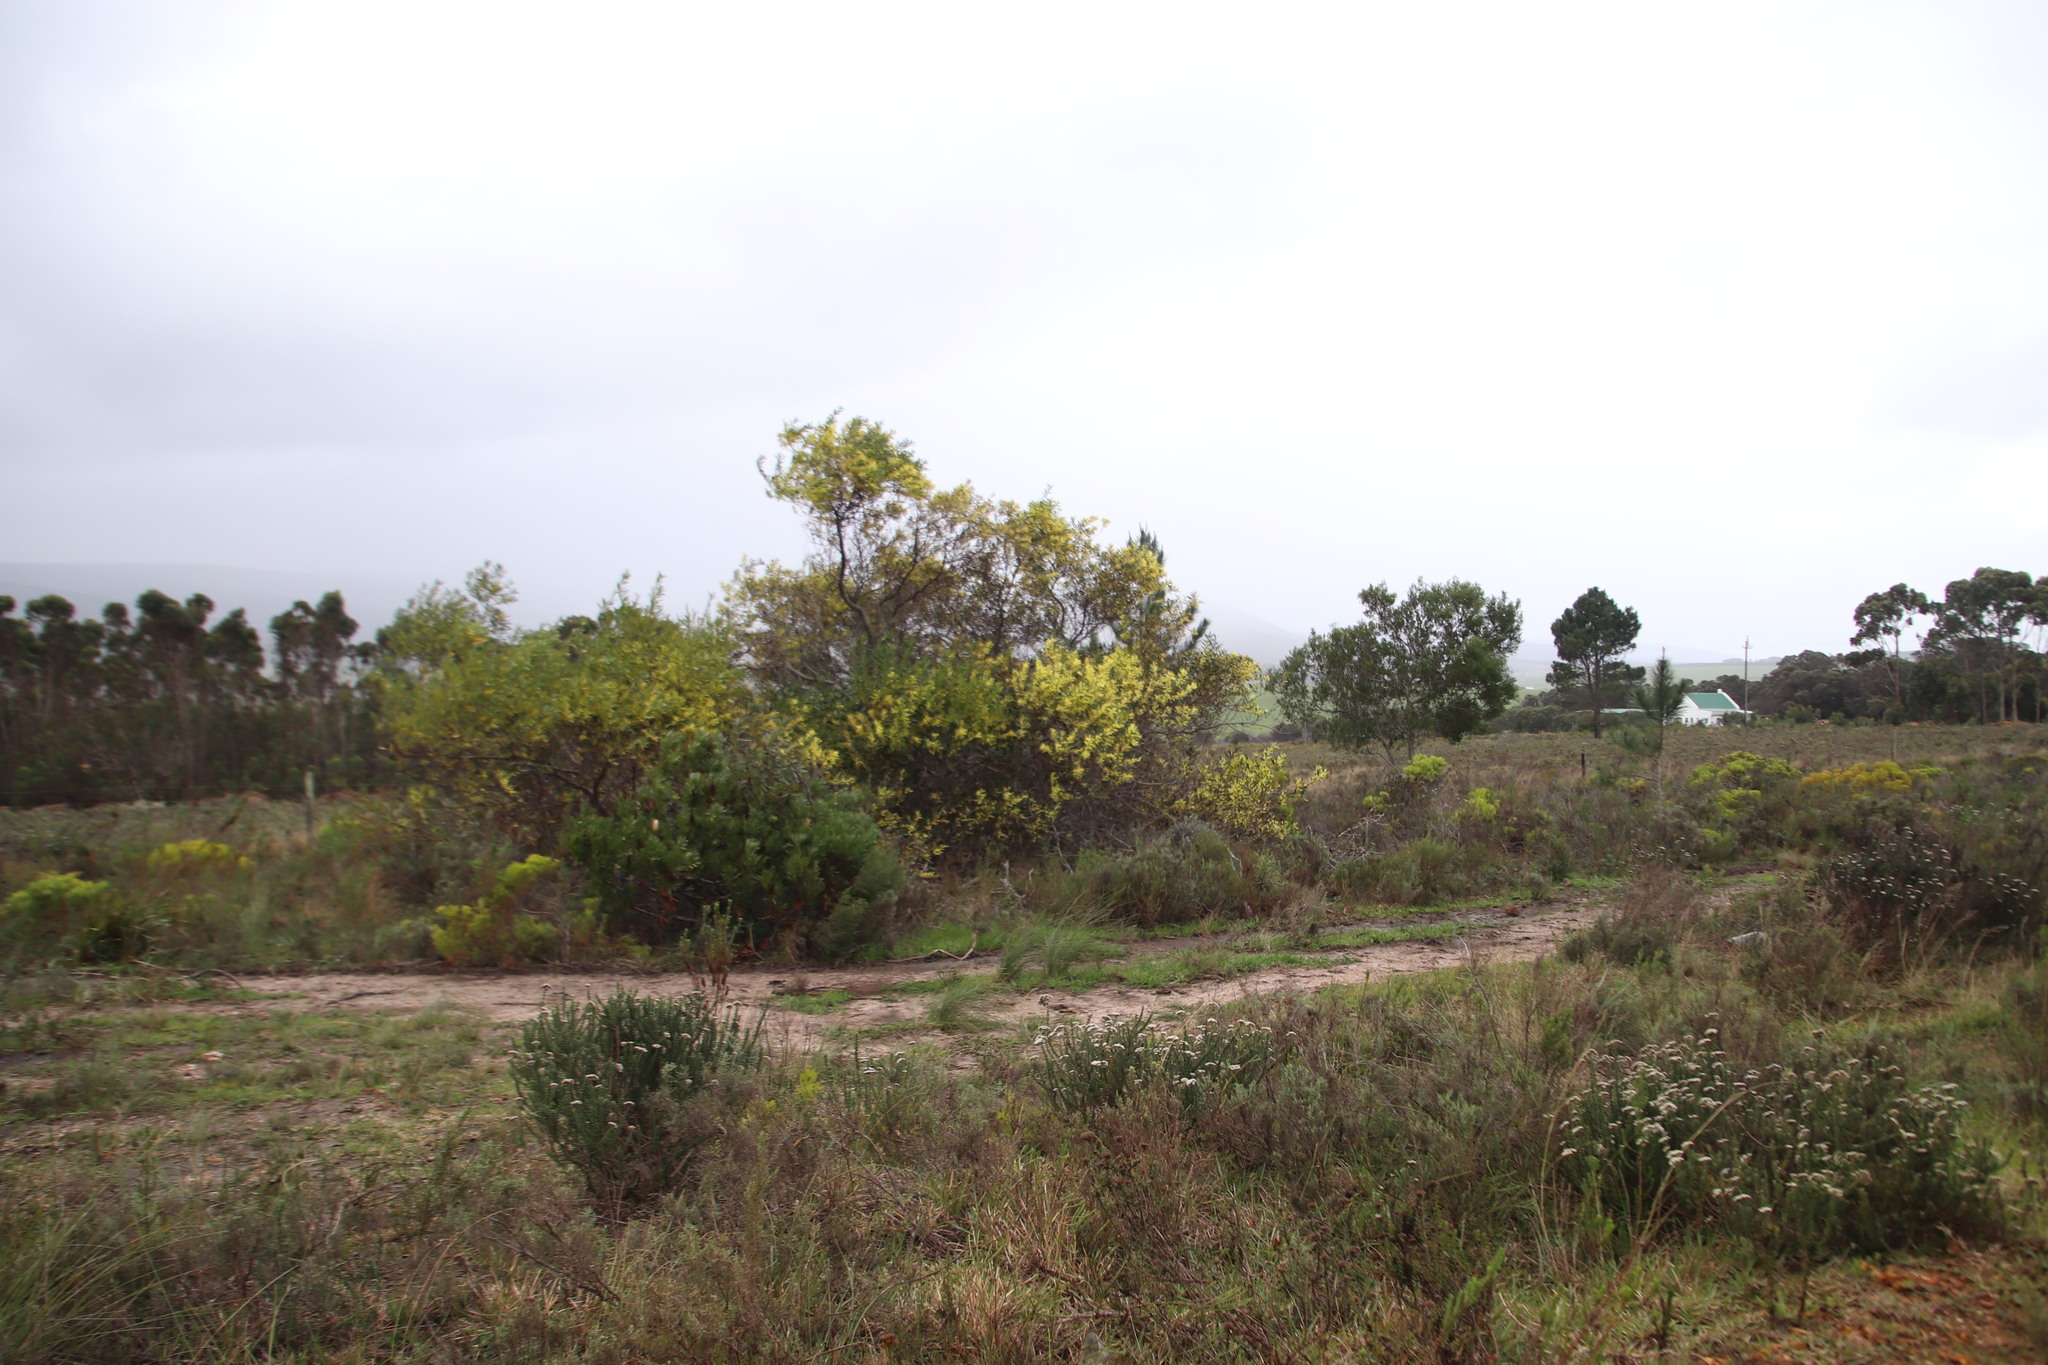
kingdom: Plantae
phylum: Tracheophyta
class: Magnoliopsida
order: Fabales
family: Fabaceae
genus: Acacia
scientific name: Acacia longifolia
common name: Sydney golden wattle
